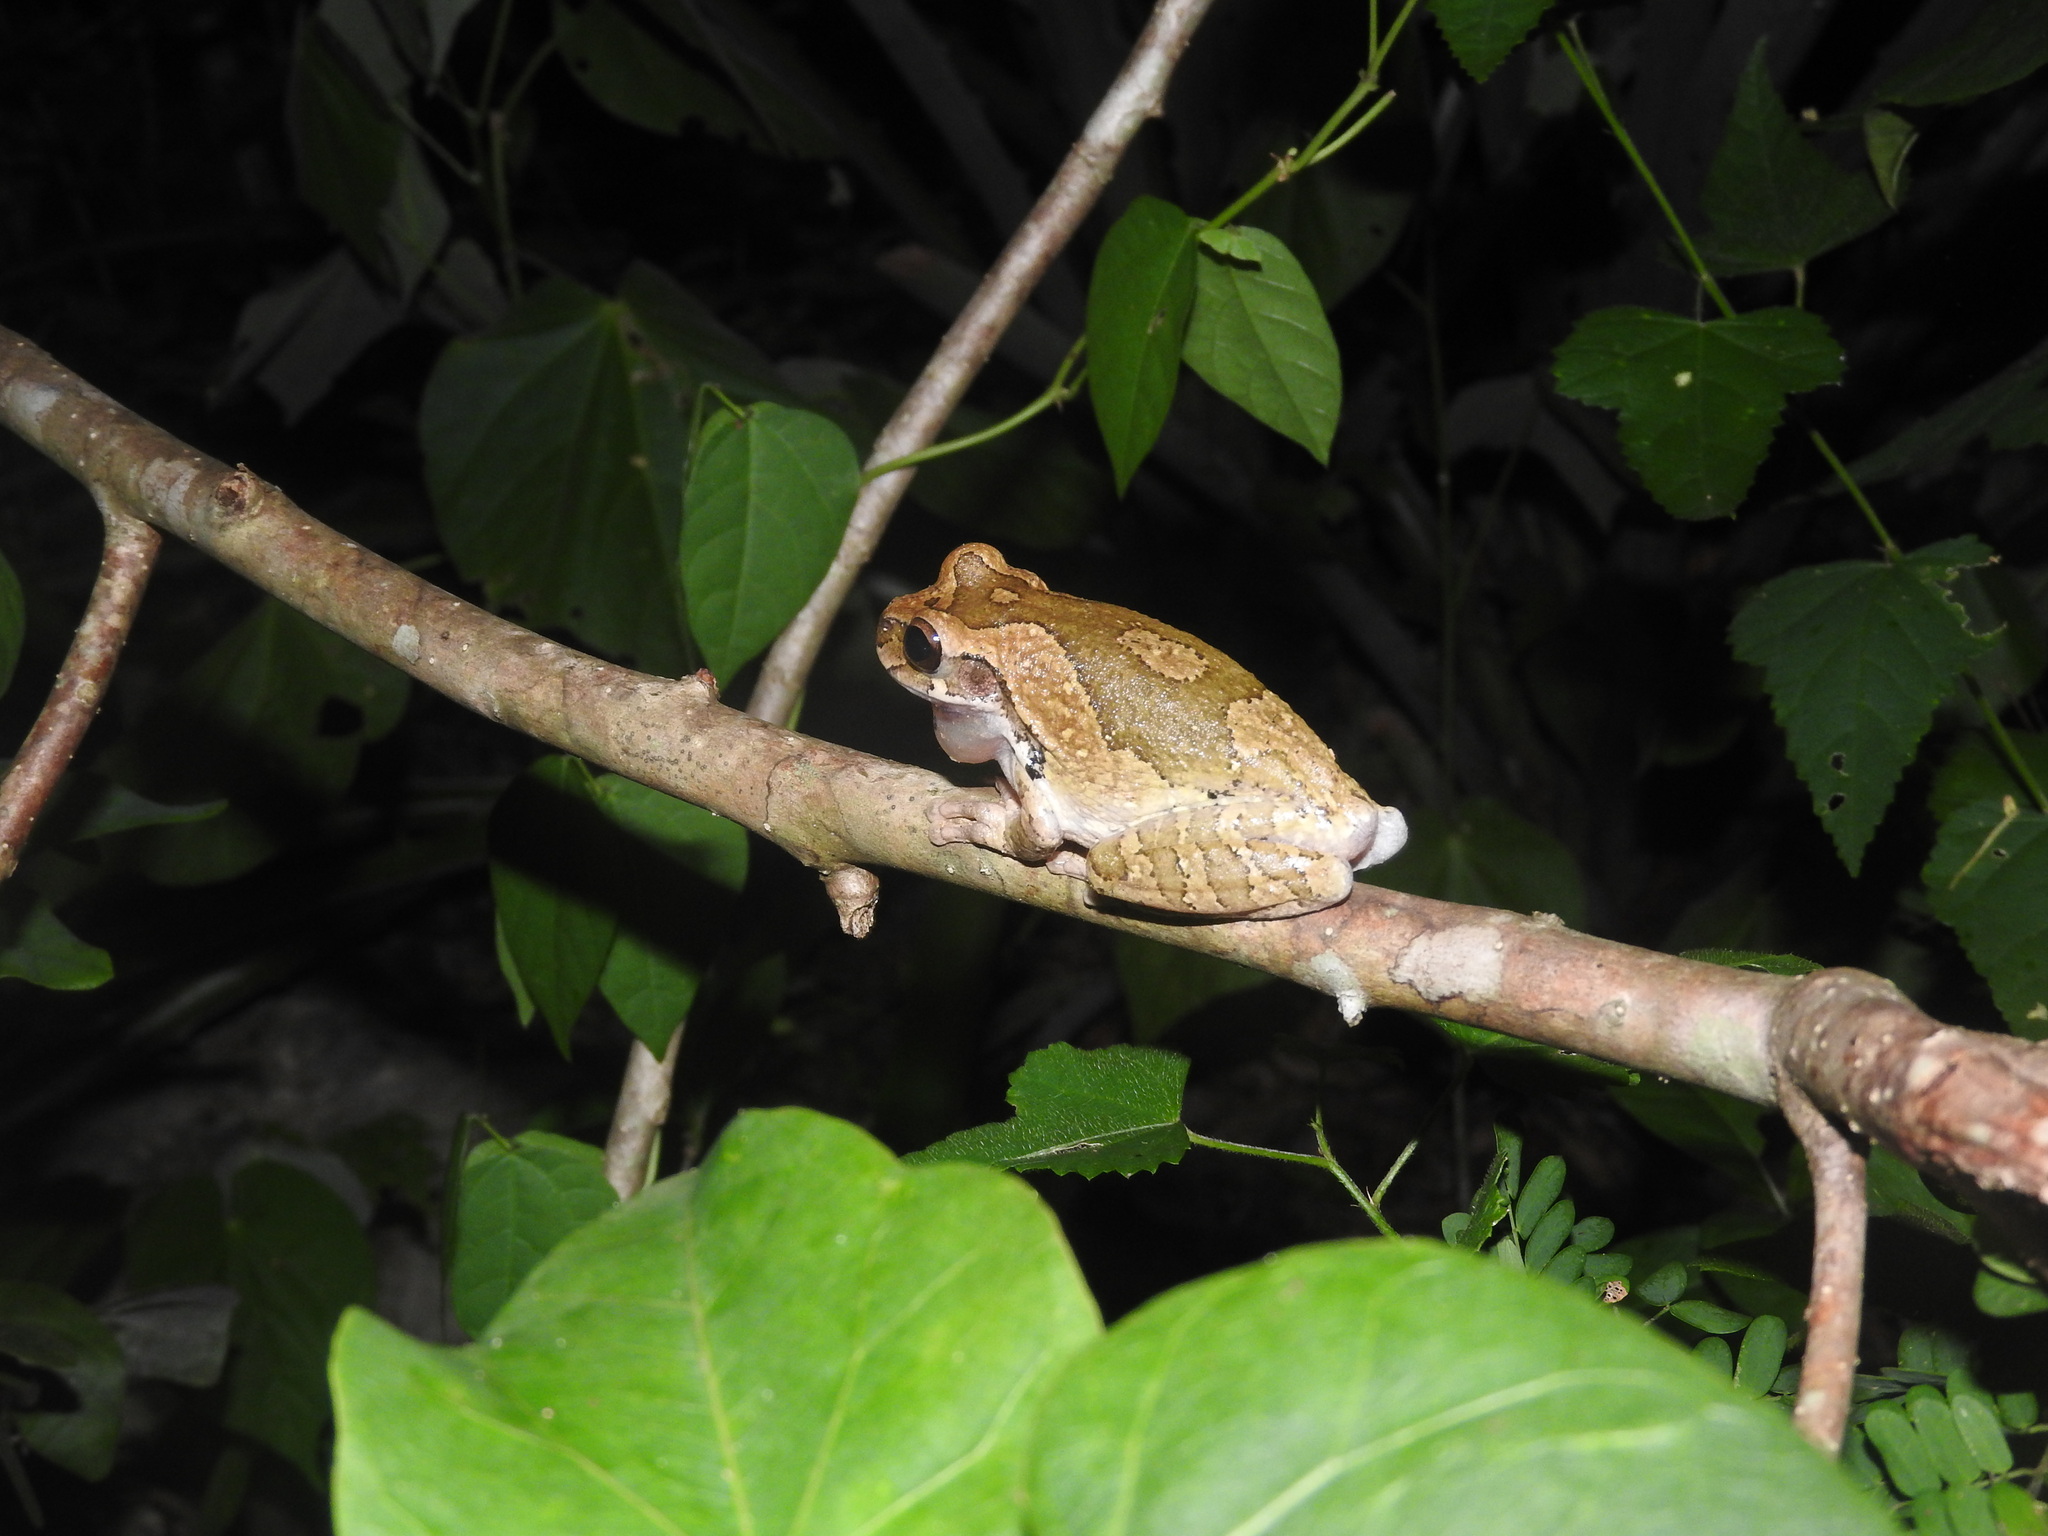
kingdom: Animalia
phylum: Chordata
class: Amphibia
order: Anura
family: Hylidae
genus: Smilisca
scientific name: Smilisca baudinii
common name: Mexican smilisca
